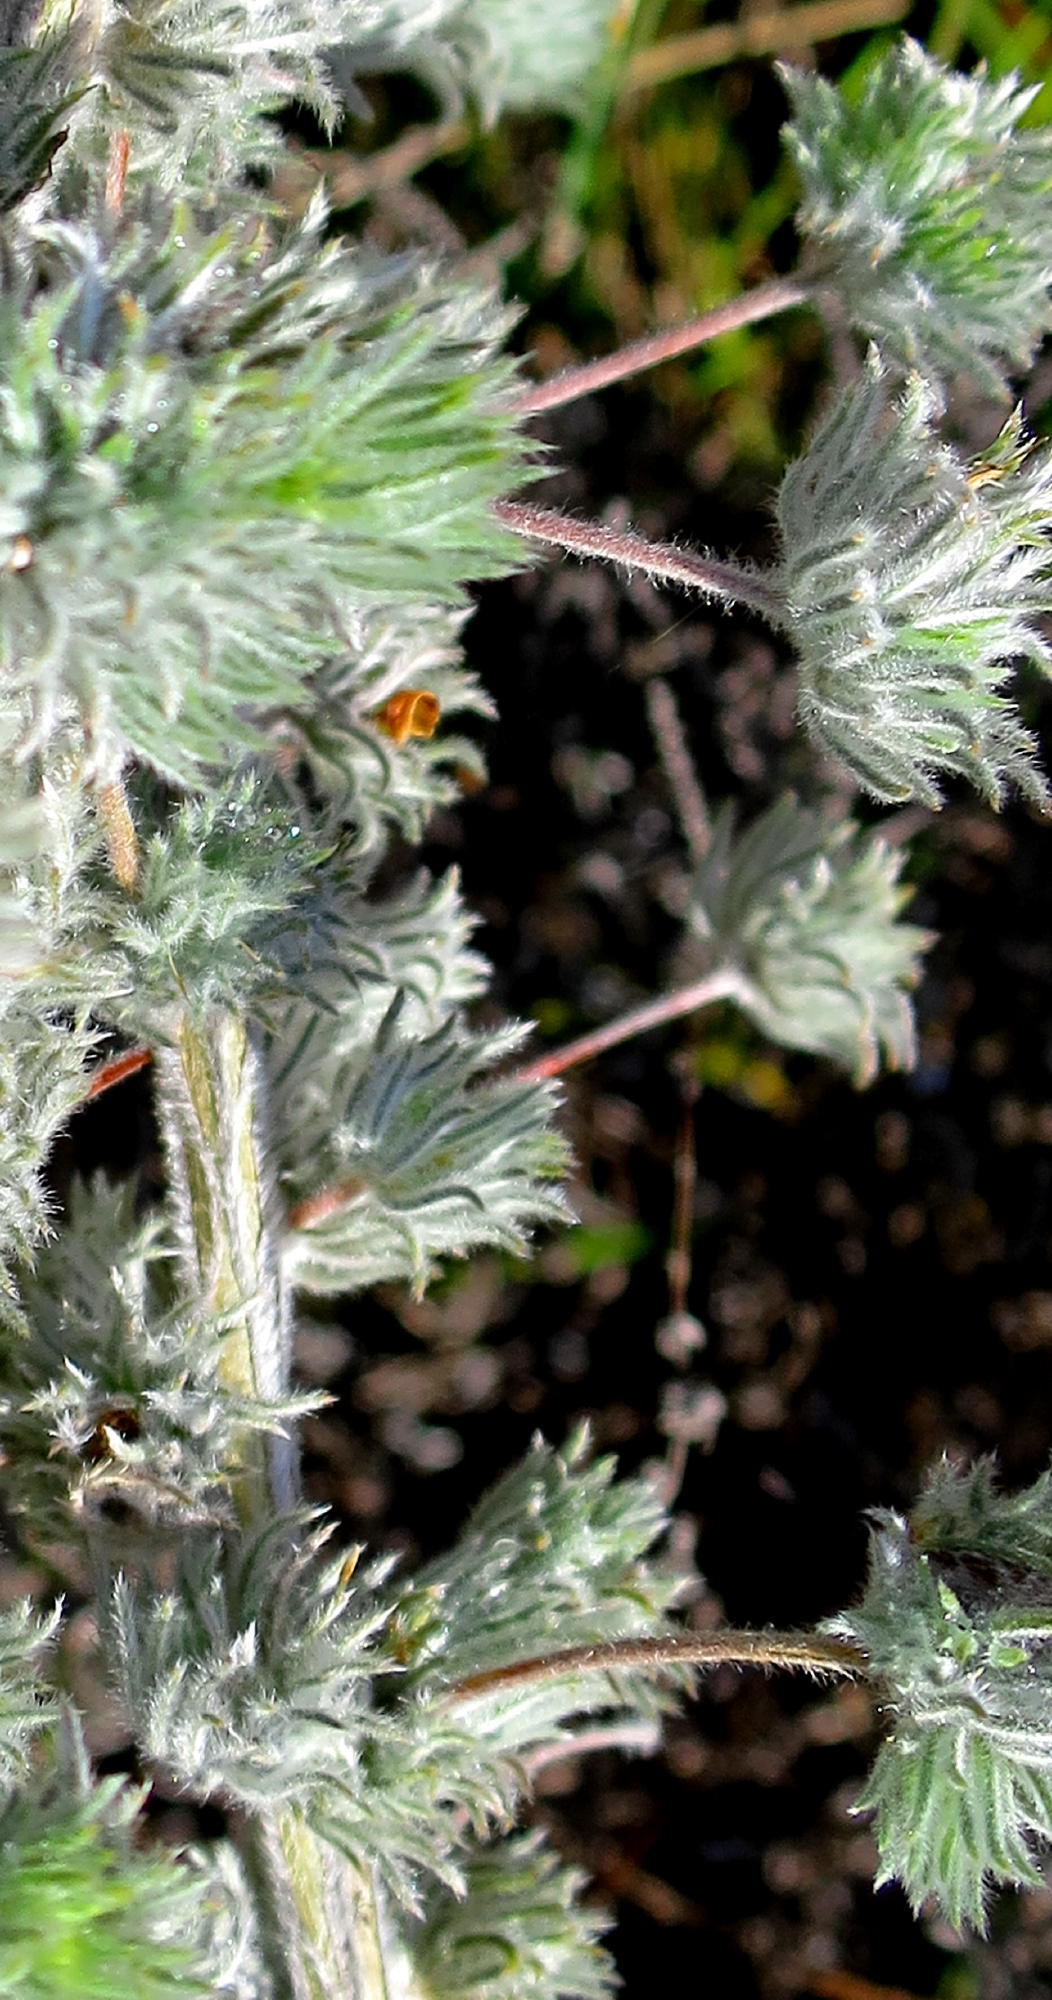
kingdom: Plantae
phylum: Tracheophyta
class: Magnoliopsida
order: Fabales
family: Fabaceae
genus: Aspalathus
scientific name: Aspalathus longipes
